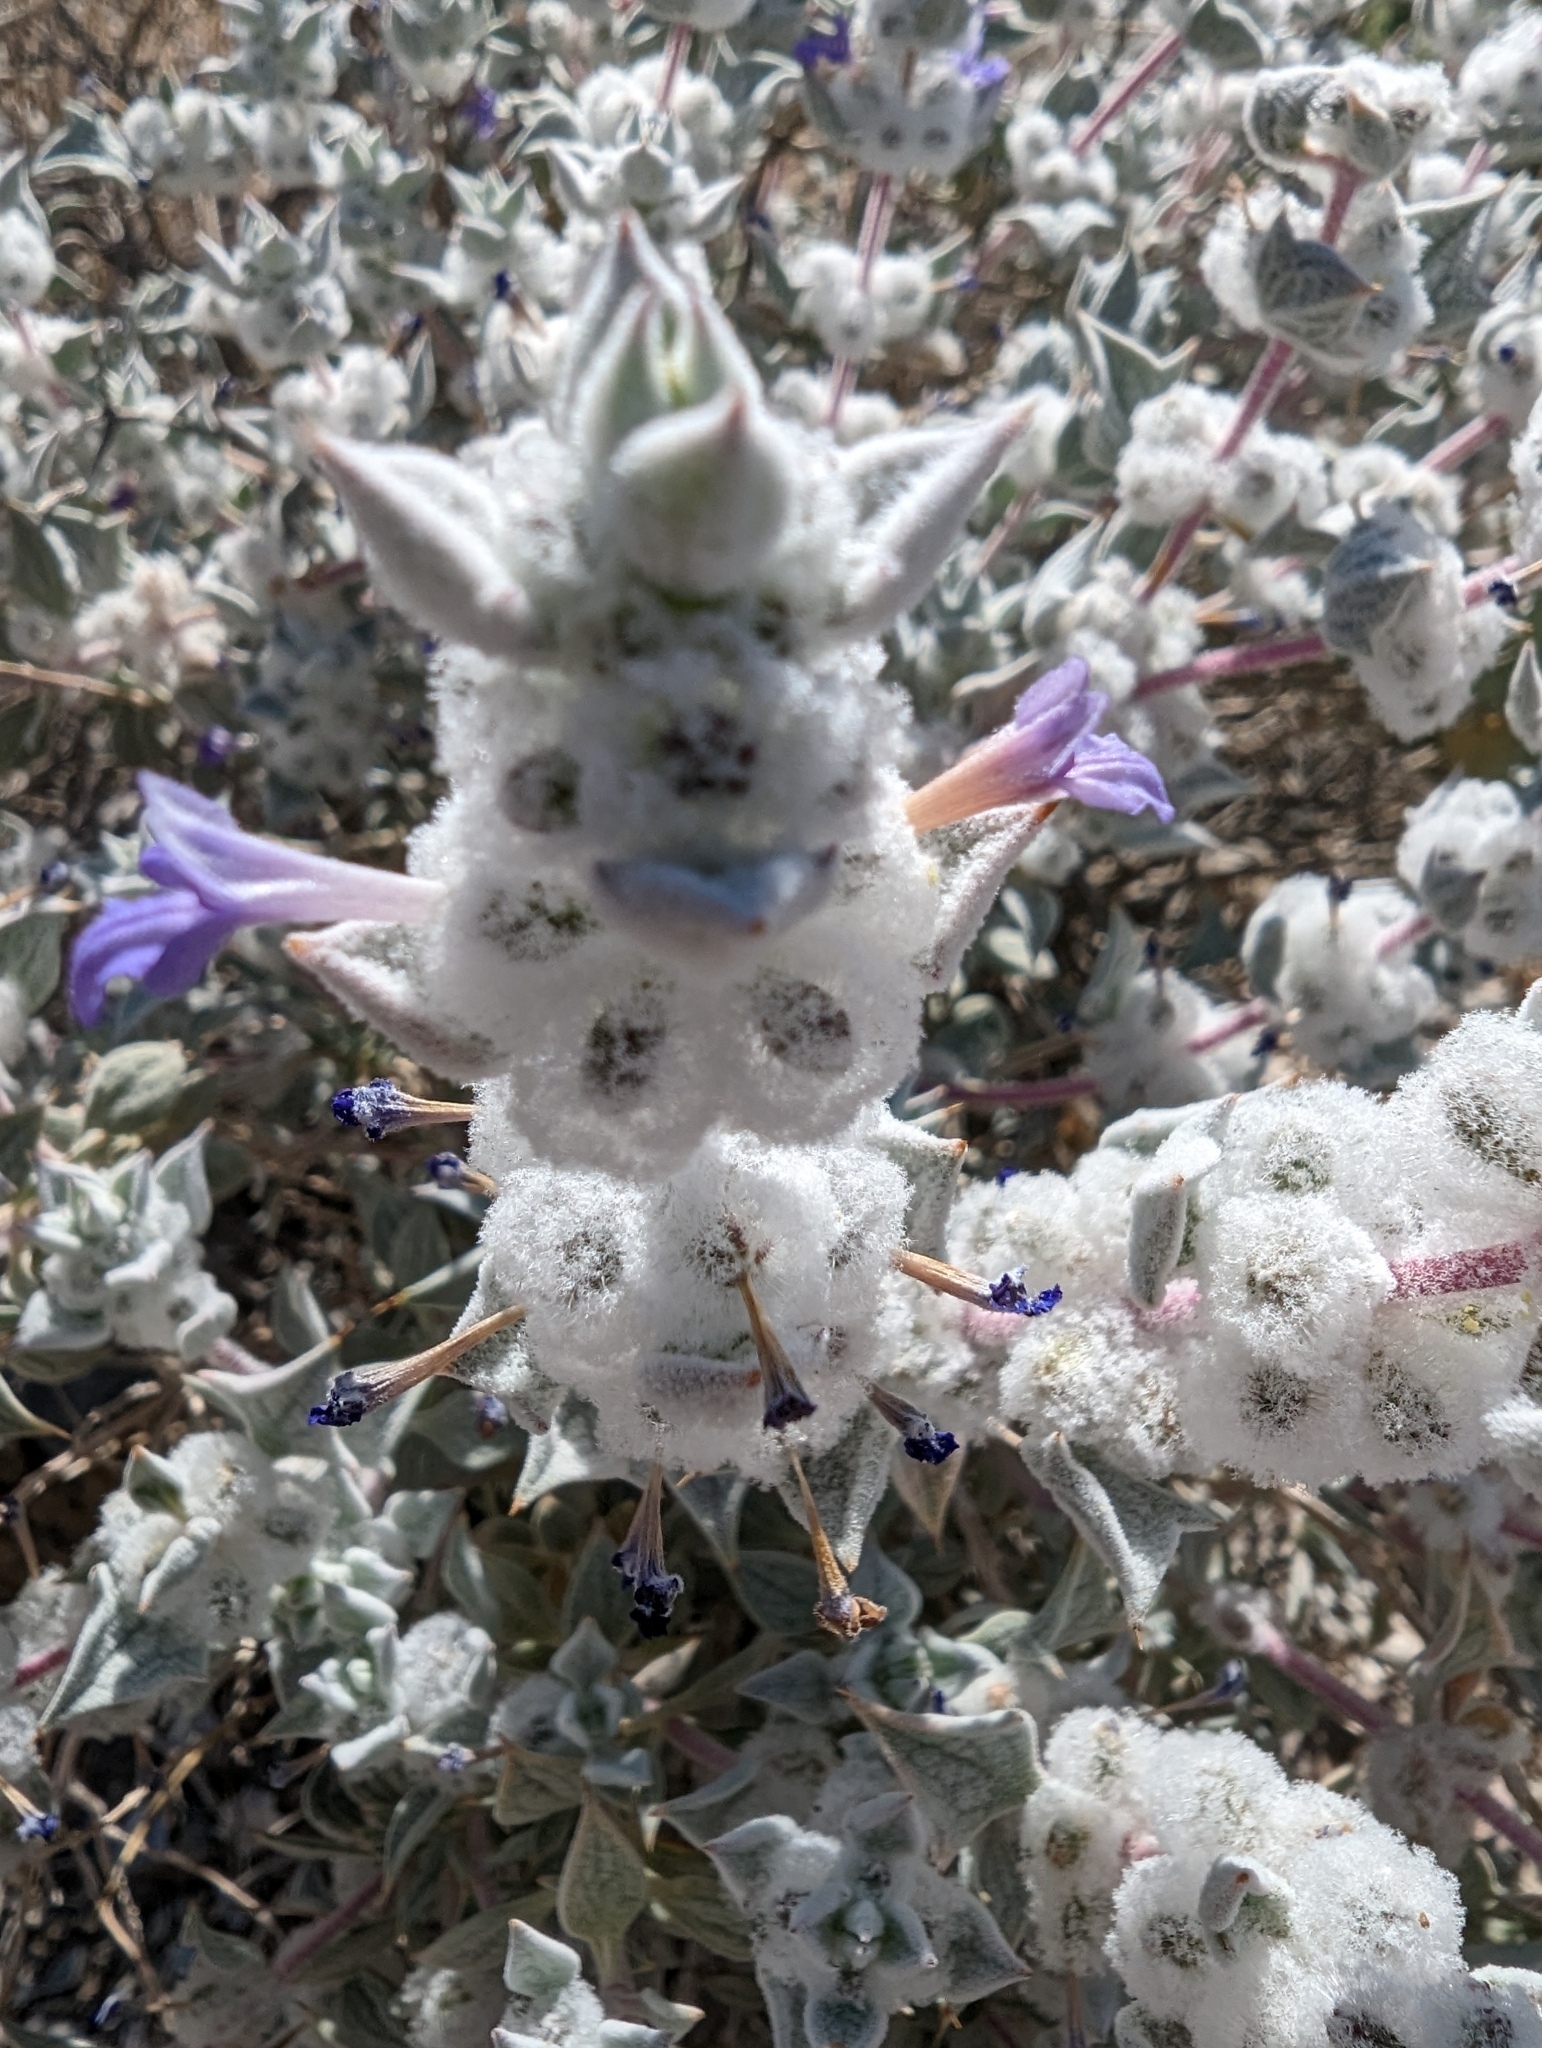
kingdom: Plantae
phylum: Tracheophyta
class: Magnoliopsida
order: Lamiales
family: Lamiaceae
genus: Salvia
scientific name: Salvia funerea
